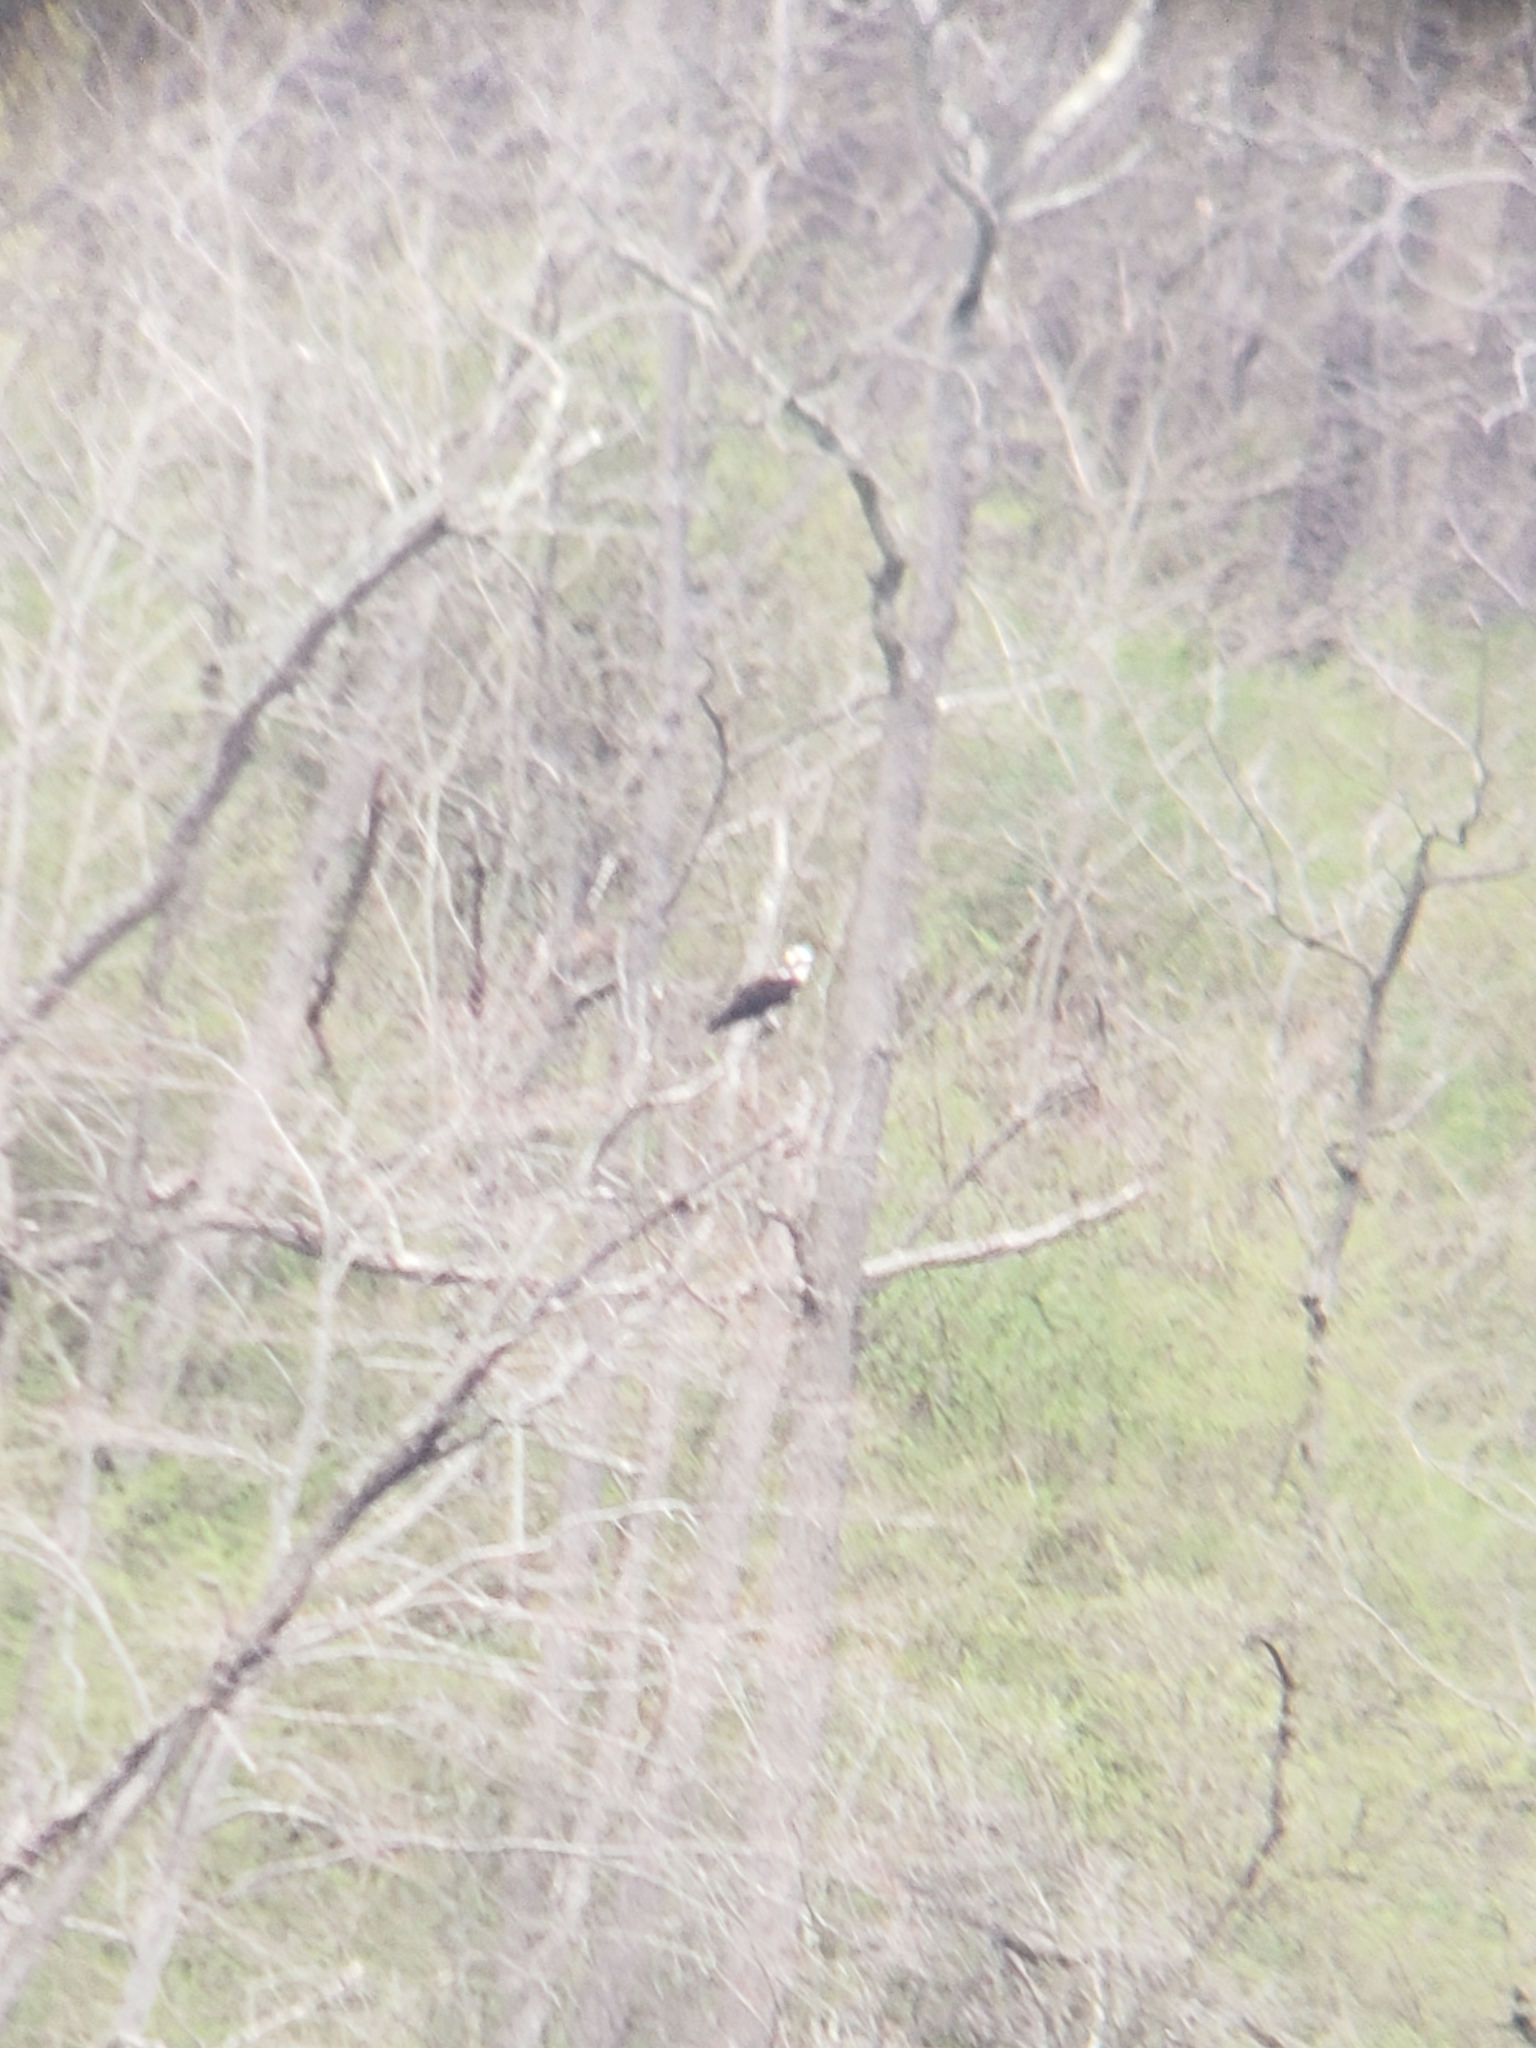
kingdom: Animalia
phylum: Chordata
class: Aves
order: Accipitriformes
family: Pandionidae
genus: Pandion
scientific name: Pandion haliaetus
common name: Osprey
